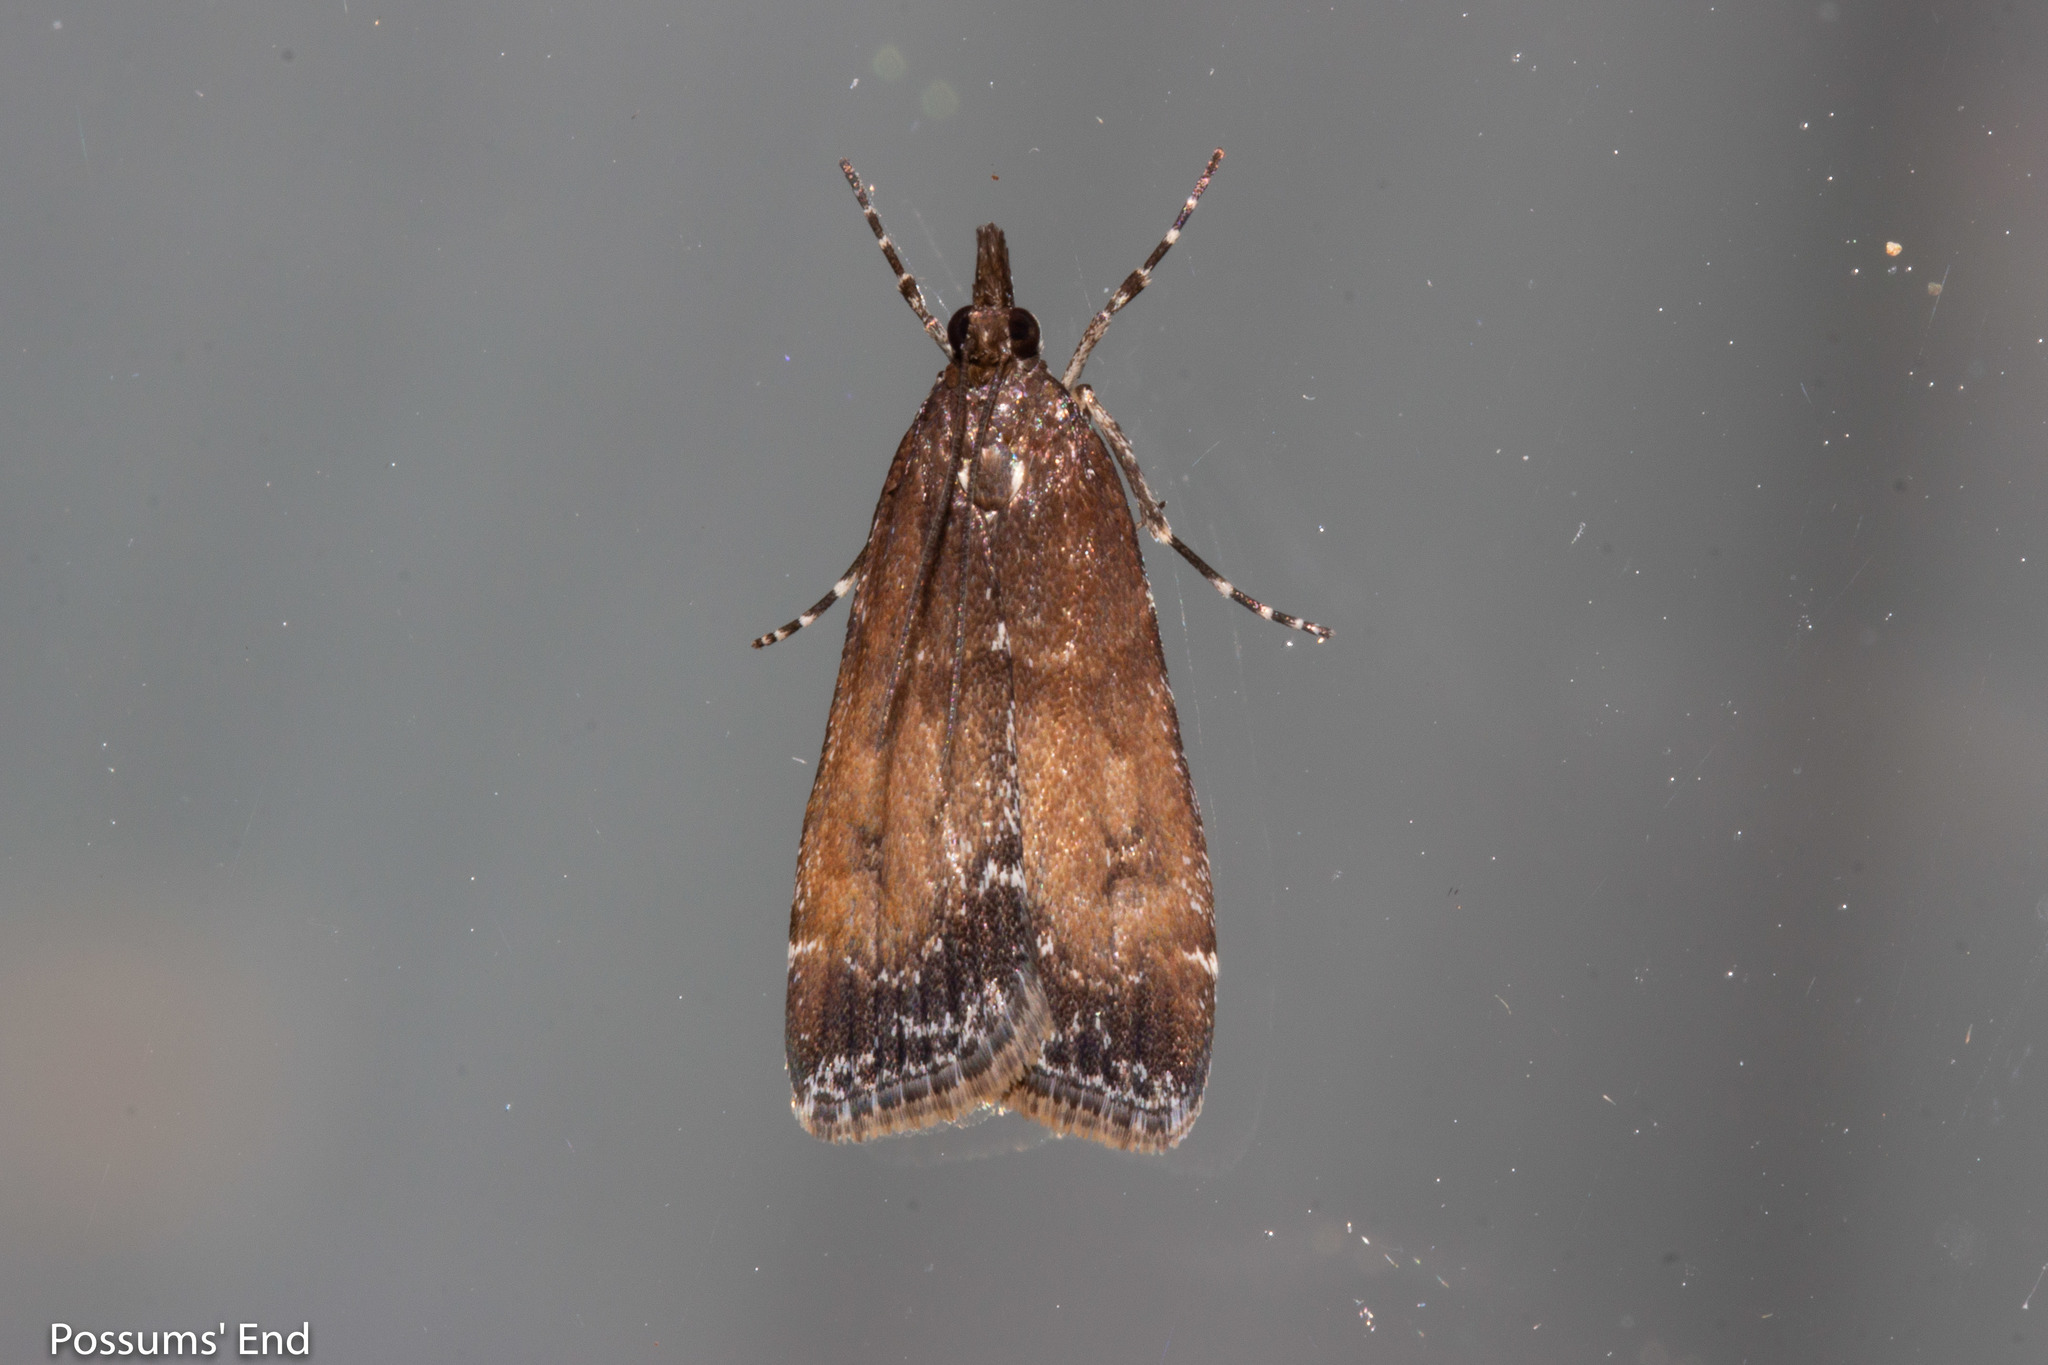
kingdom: Animalia
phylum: Arthropoda
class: Insecta
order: Lepidoptera
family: Crambidae
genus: Eudonia
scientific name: Eudonia asterisca
